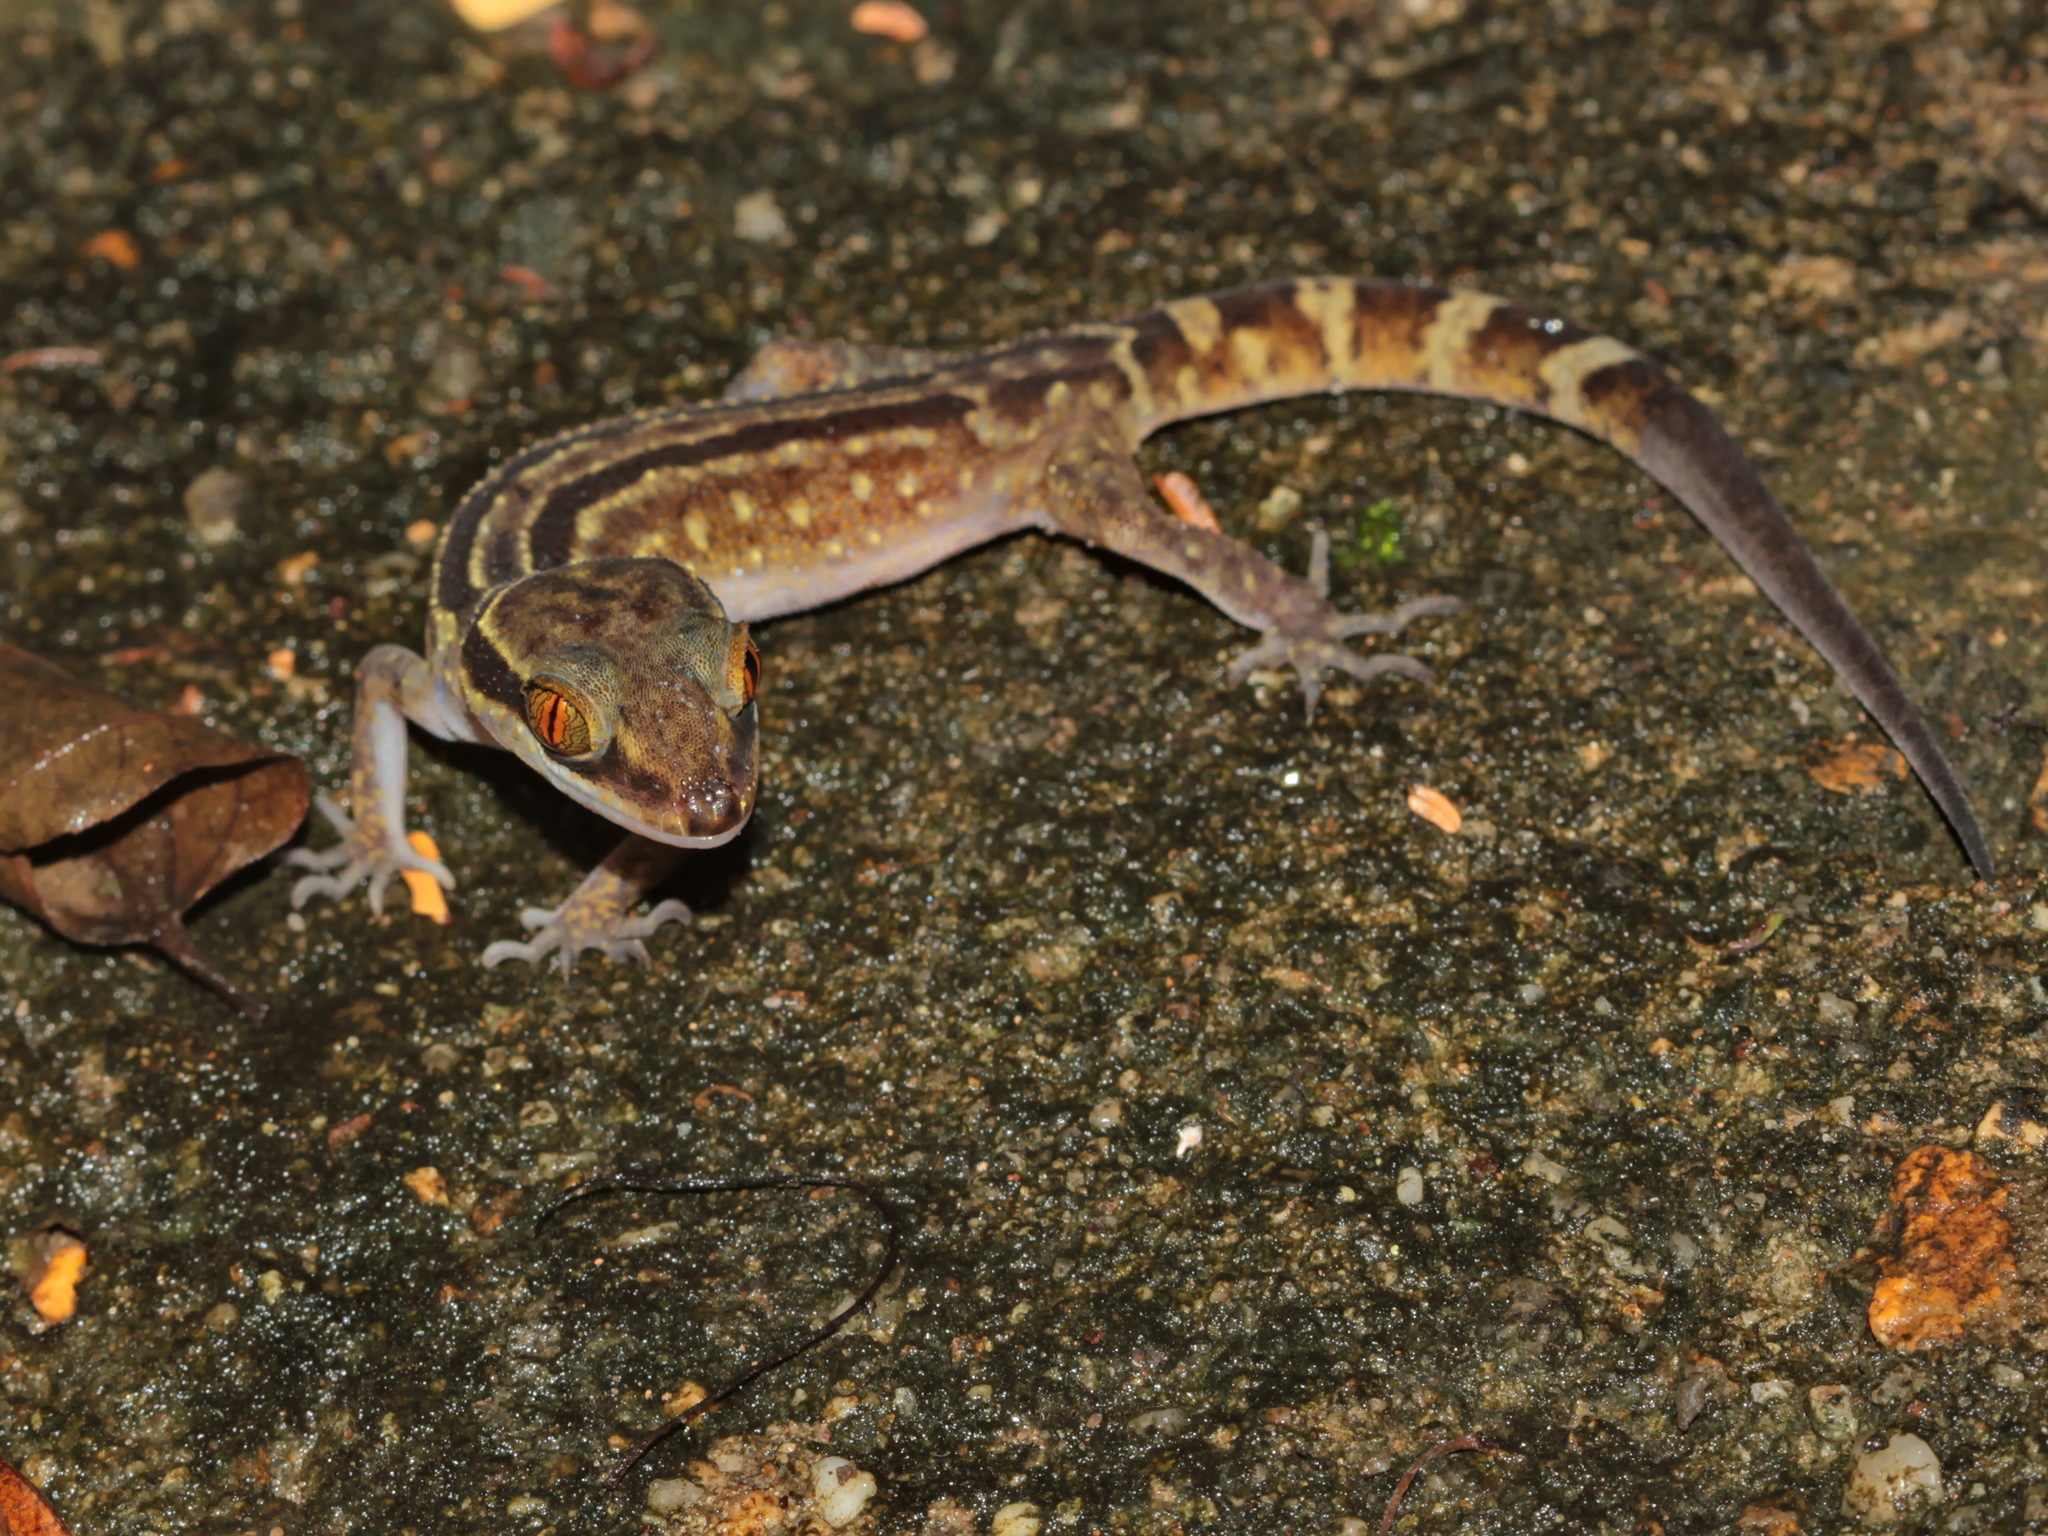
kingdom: Animalia
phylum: Chordata
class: Squamata
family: Gekkonidae
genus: Cyrtodactylus
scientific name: Cyrtodactylus phetchaburiensis
